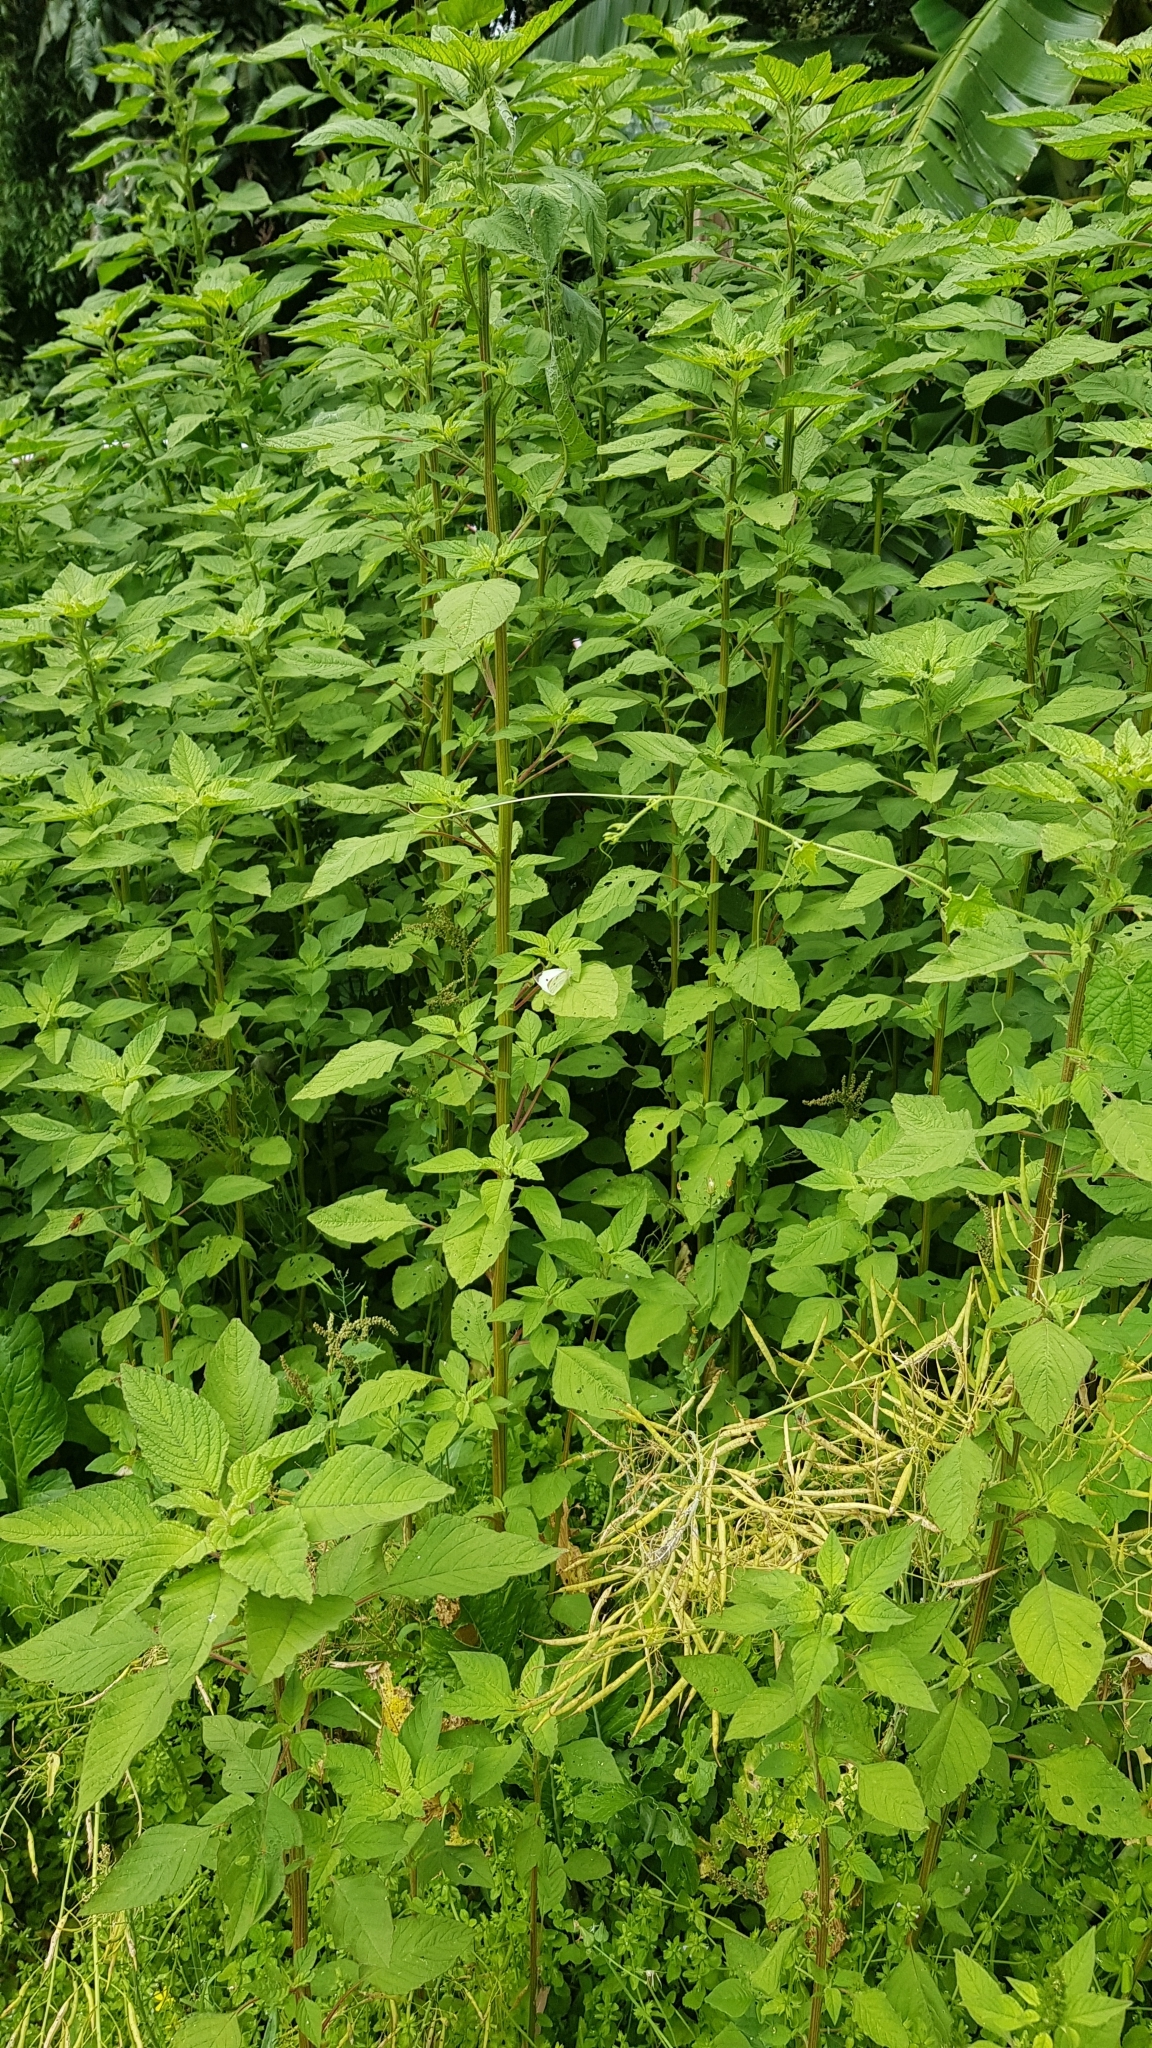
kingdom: Animalia
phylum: Arthropoda
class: Insecta
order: Lepidoptera
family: Pieridae
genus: Pieris
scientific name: Pieris rapae
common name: Small white
